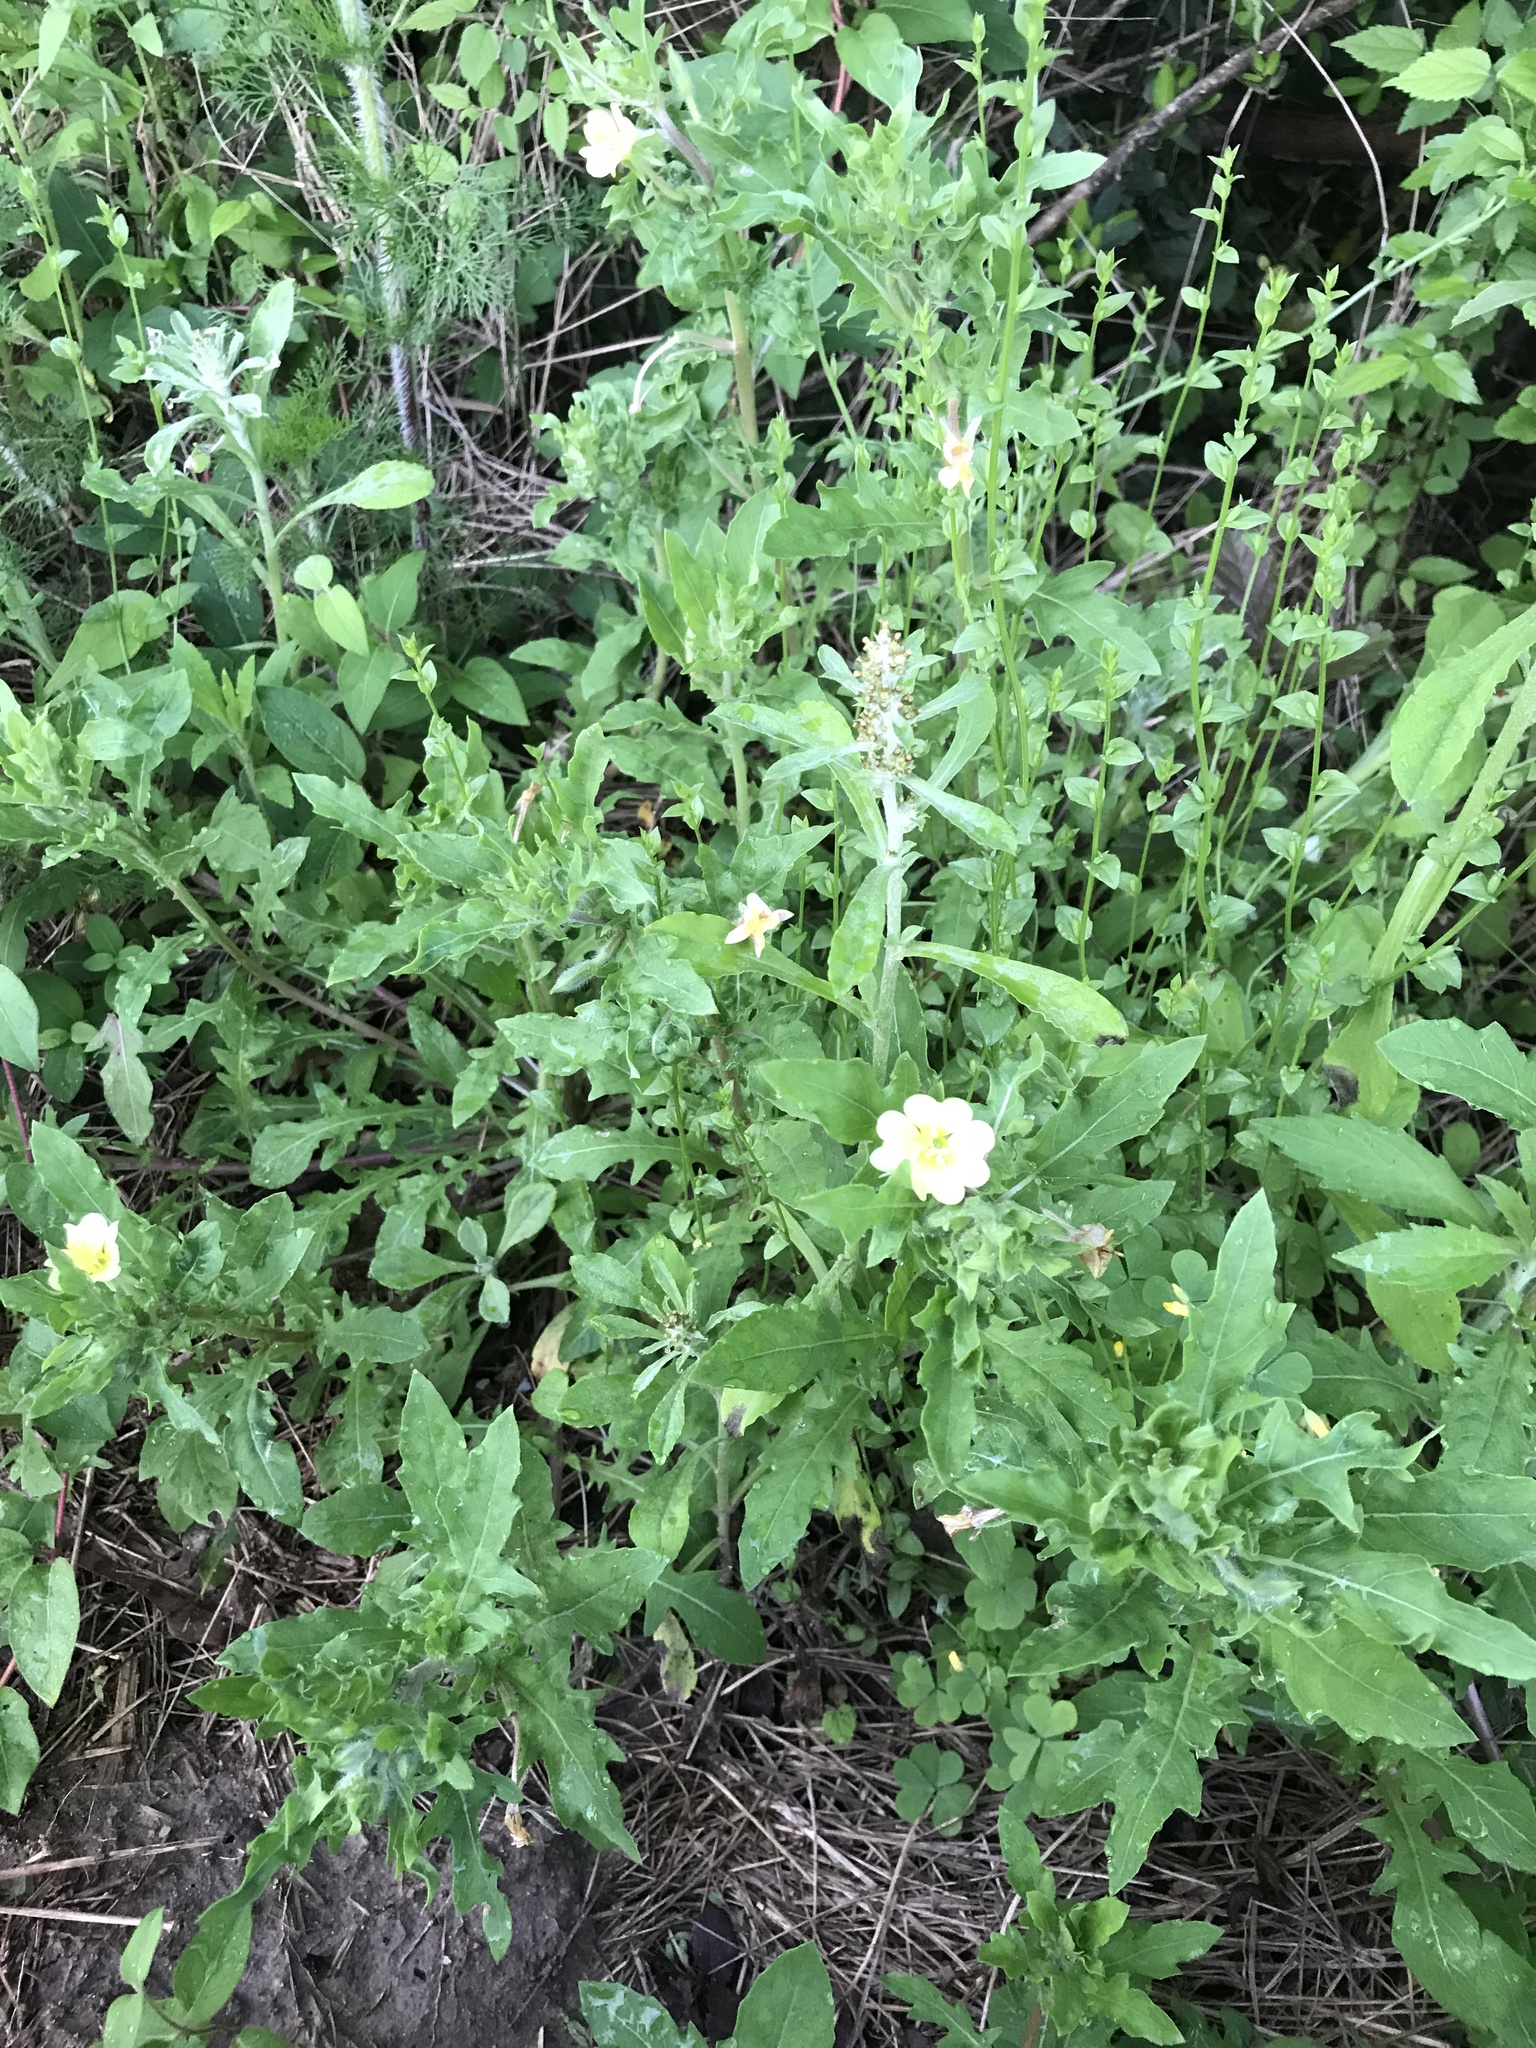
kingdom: Plantae
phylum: Tracheophyta
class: Magnoliopsida
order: Myrtales
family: Onagraceae
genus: Oenothera
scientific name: Oenothera laciniata
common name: Cut-leaved evening-primrose
